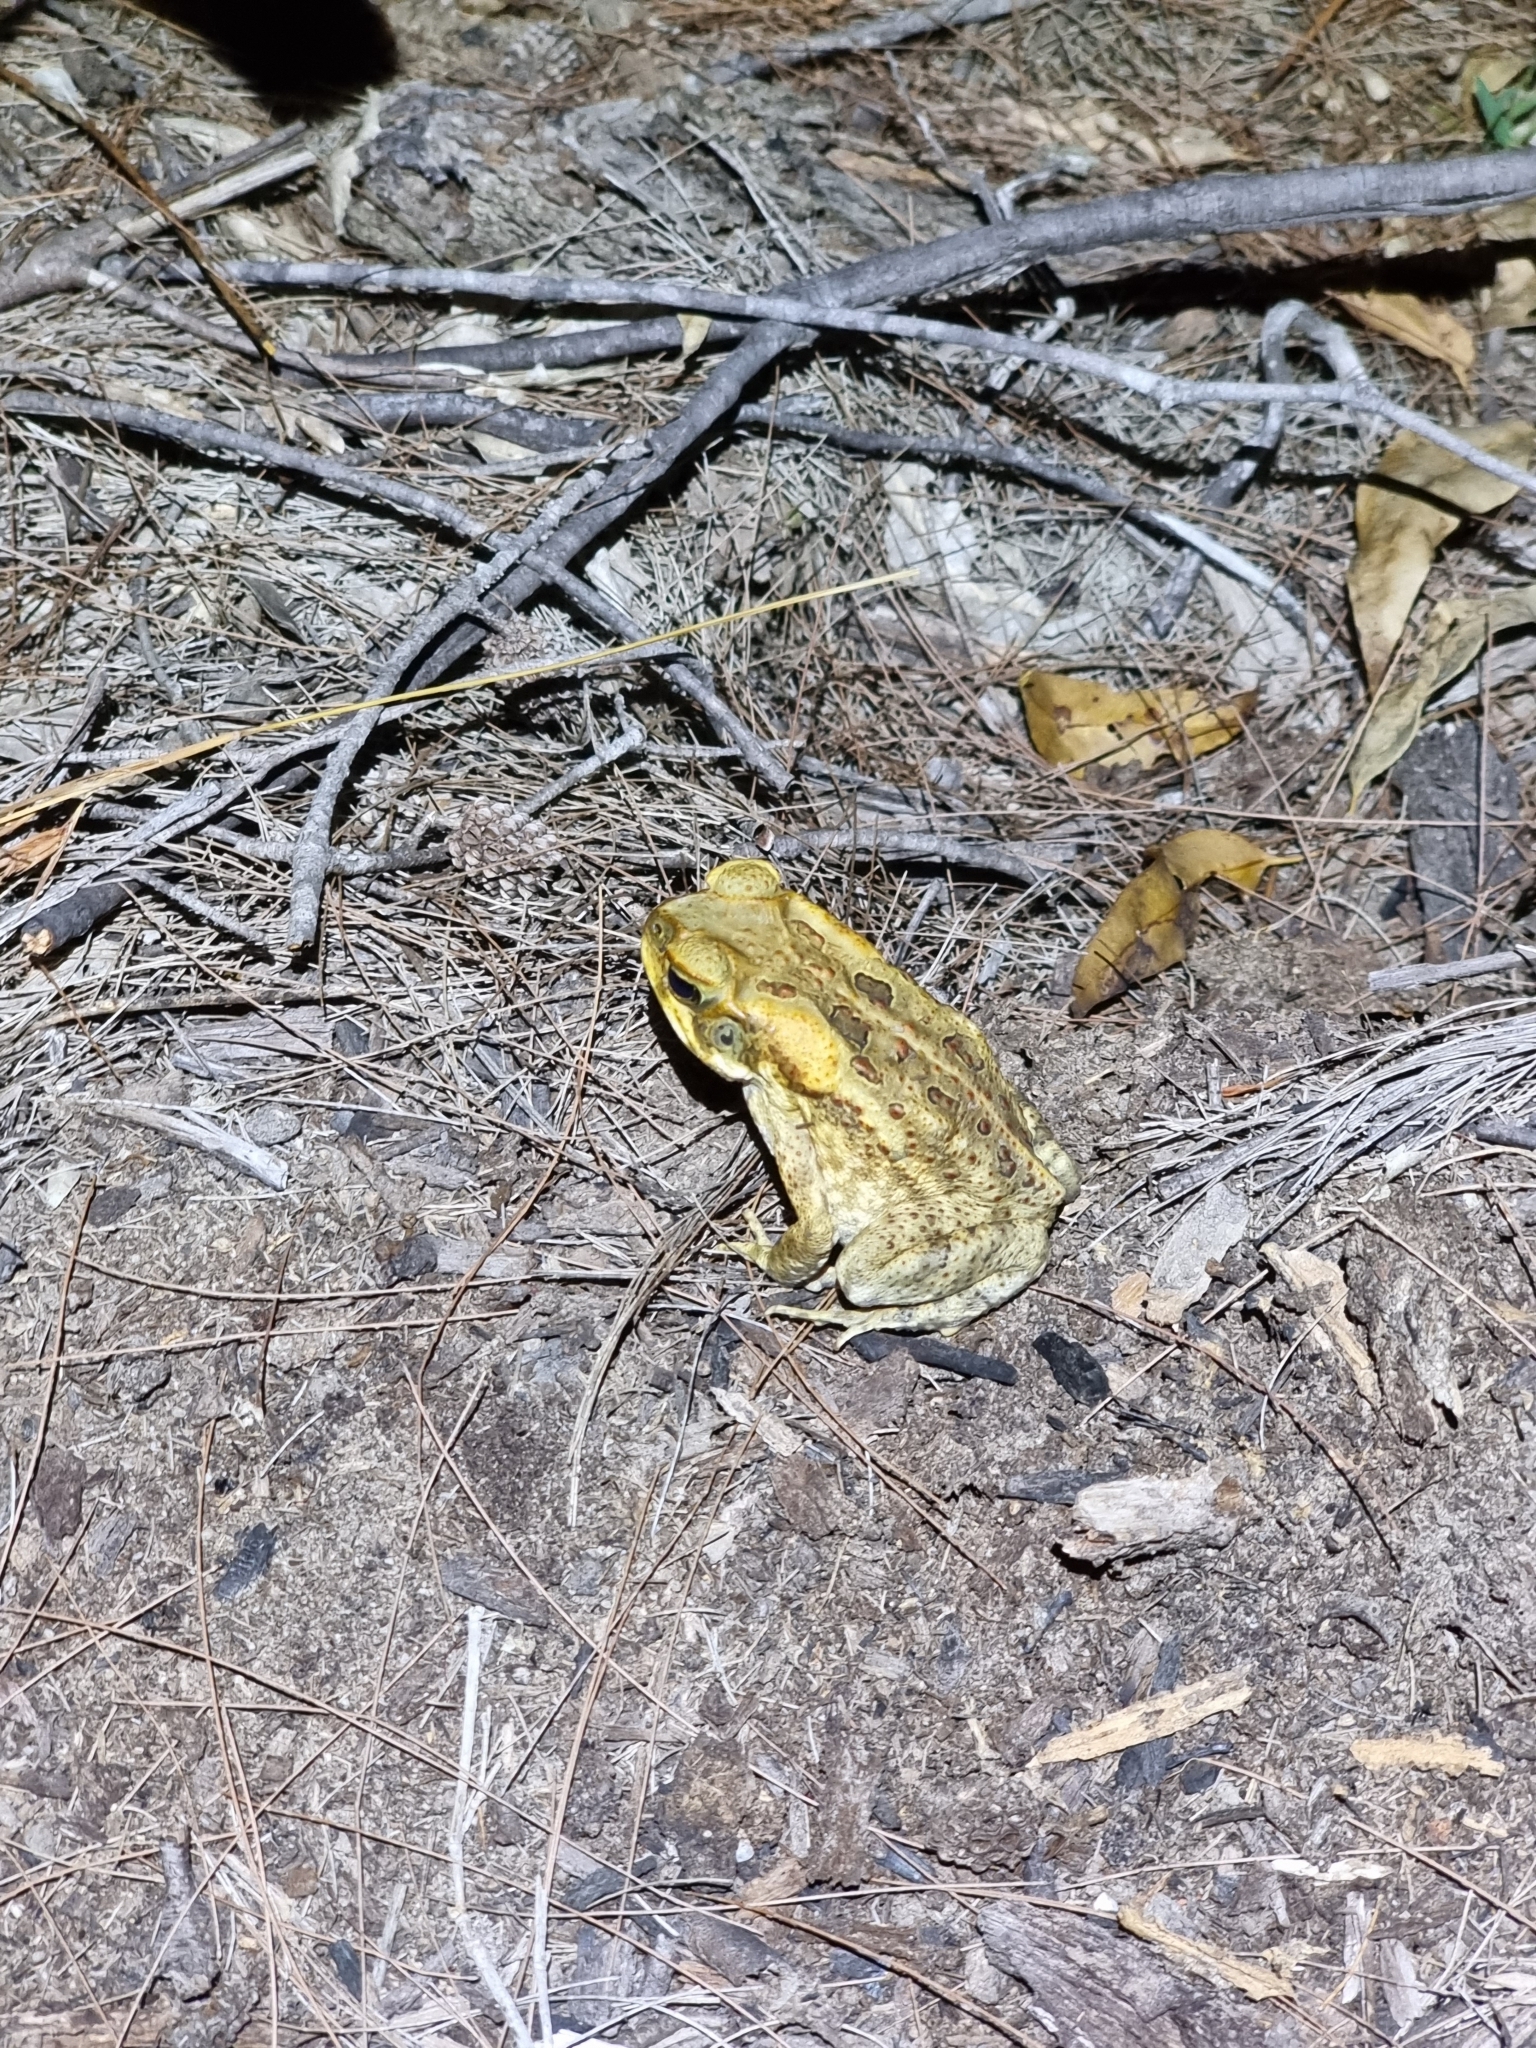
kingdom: Animalia
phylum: Chordata
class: Amphibia
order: Anura
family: Bufonidae
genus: Rhinella
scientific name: Rhinella marina
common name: Cane toad
